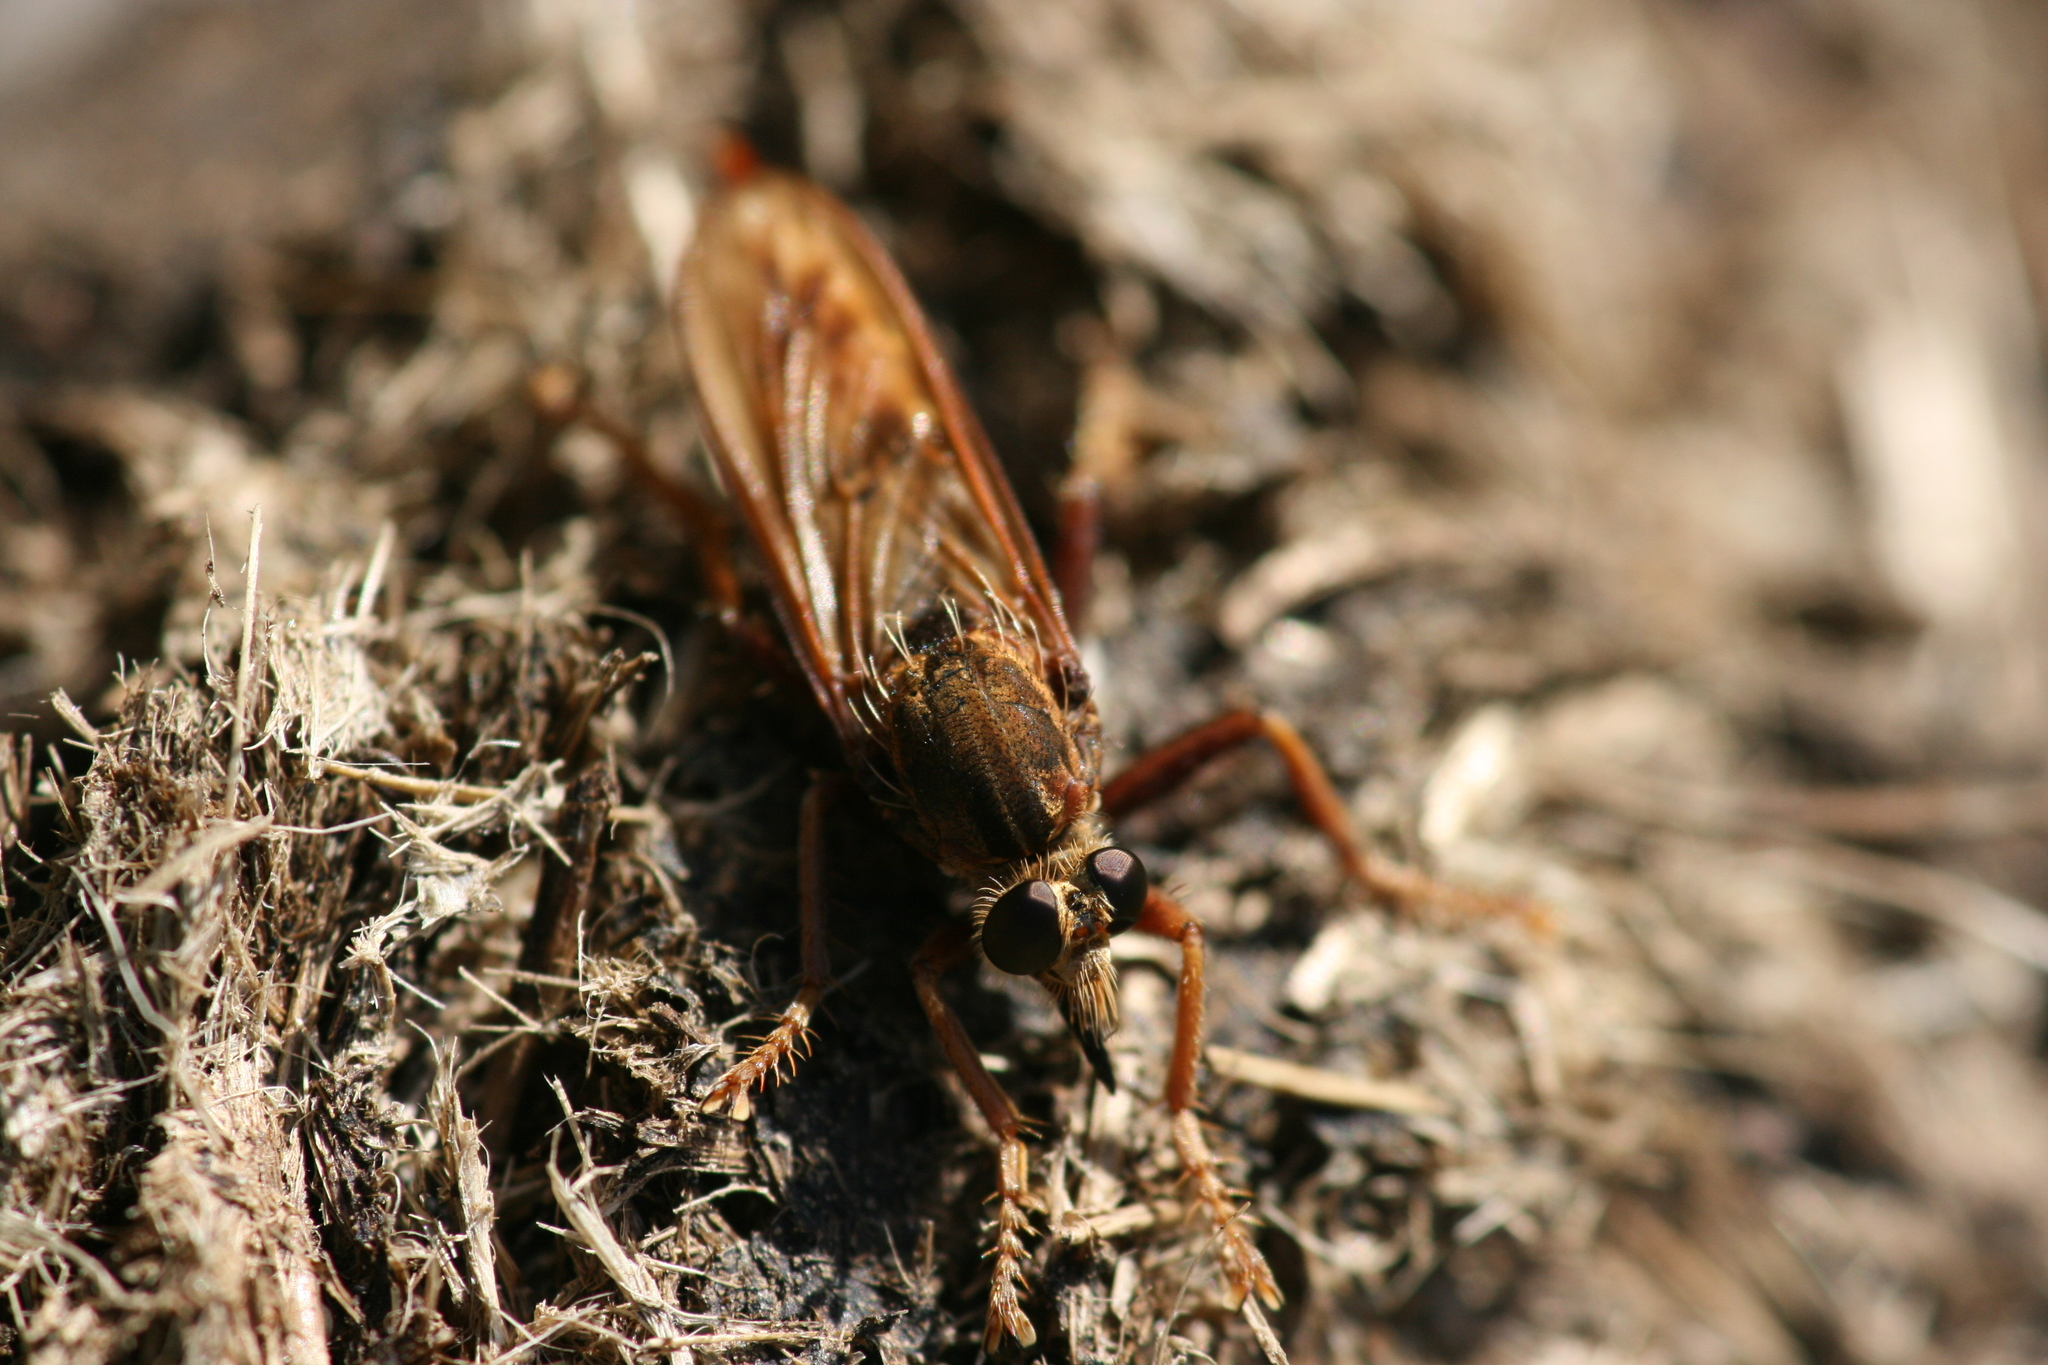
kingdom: Animalia
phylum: Arthropoda
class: Insecta
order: Diptera
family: Asilidae
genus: Asilus
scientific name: Asilus crabroniformis
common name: Hornet robberfly
